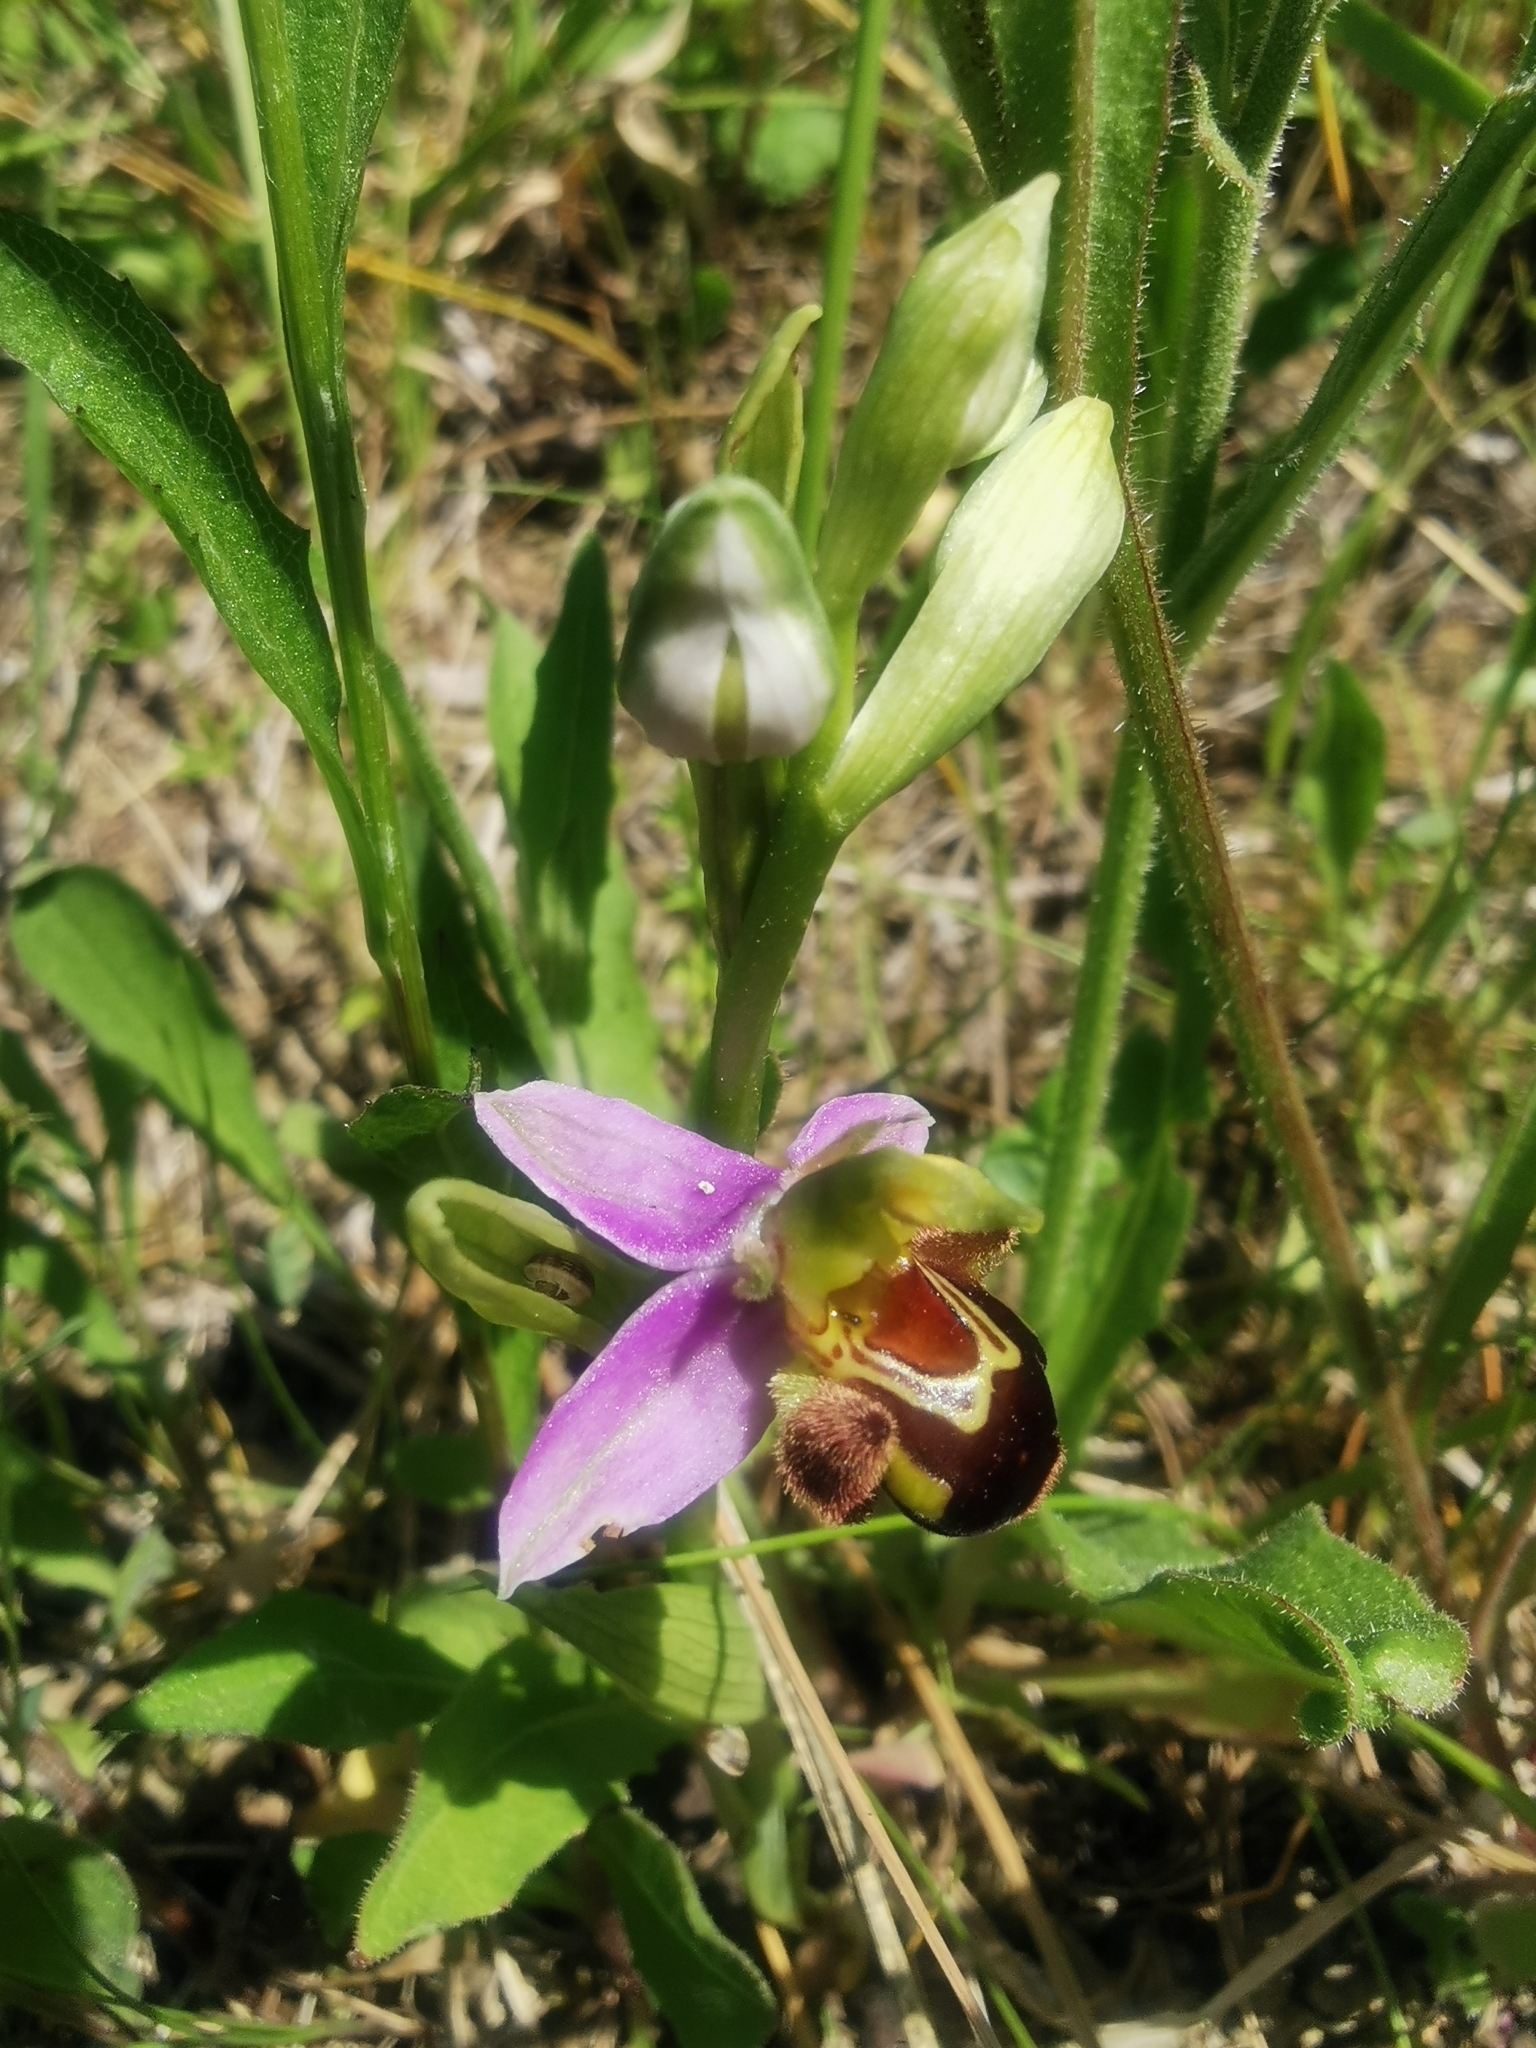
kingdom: Plantae
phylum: Tracheophyta
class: Liliopsida
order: Asparagales
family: Orchidaceae
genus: Ophrys
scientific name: Ophrys apifera
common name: Bee orchid
